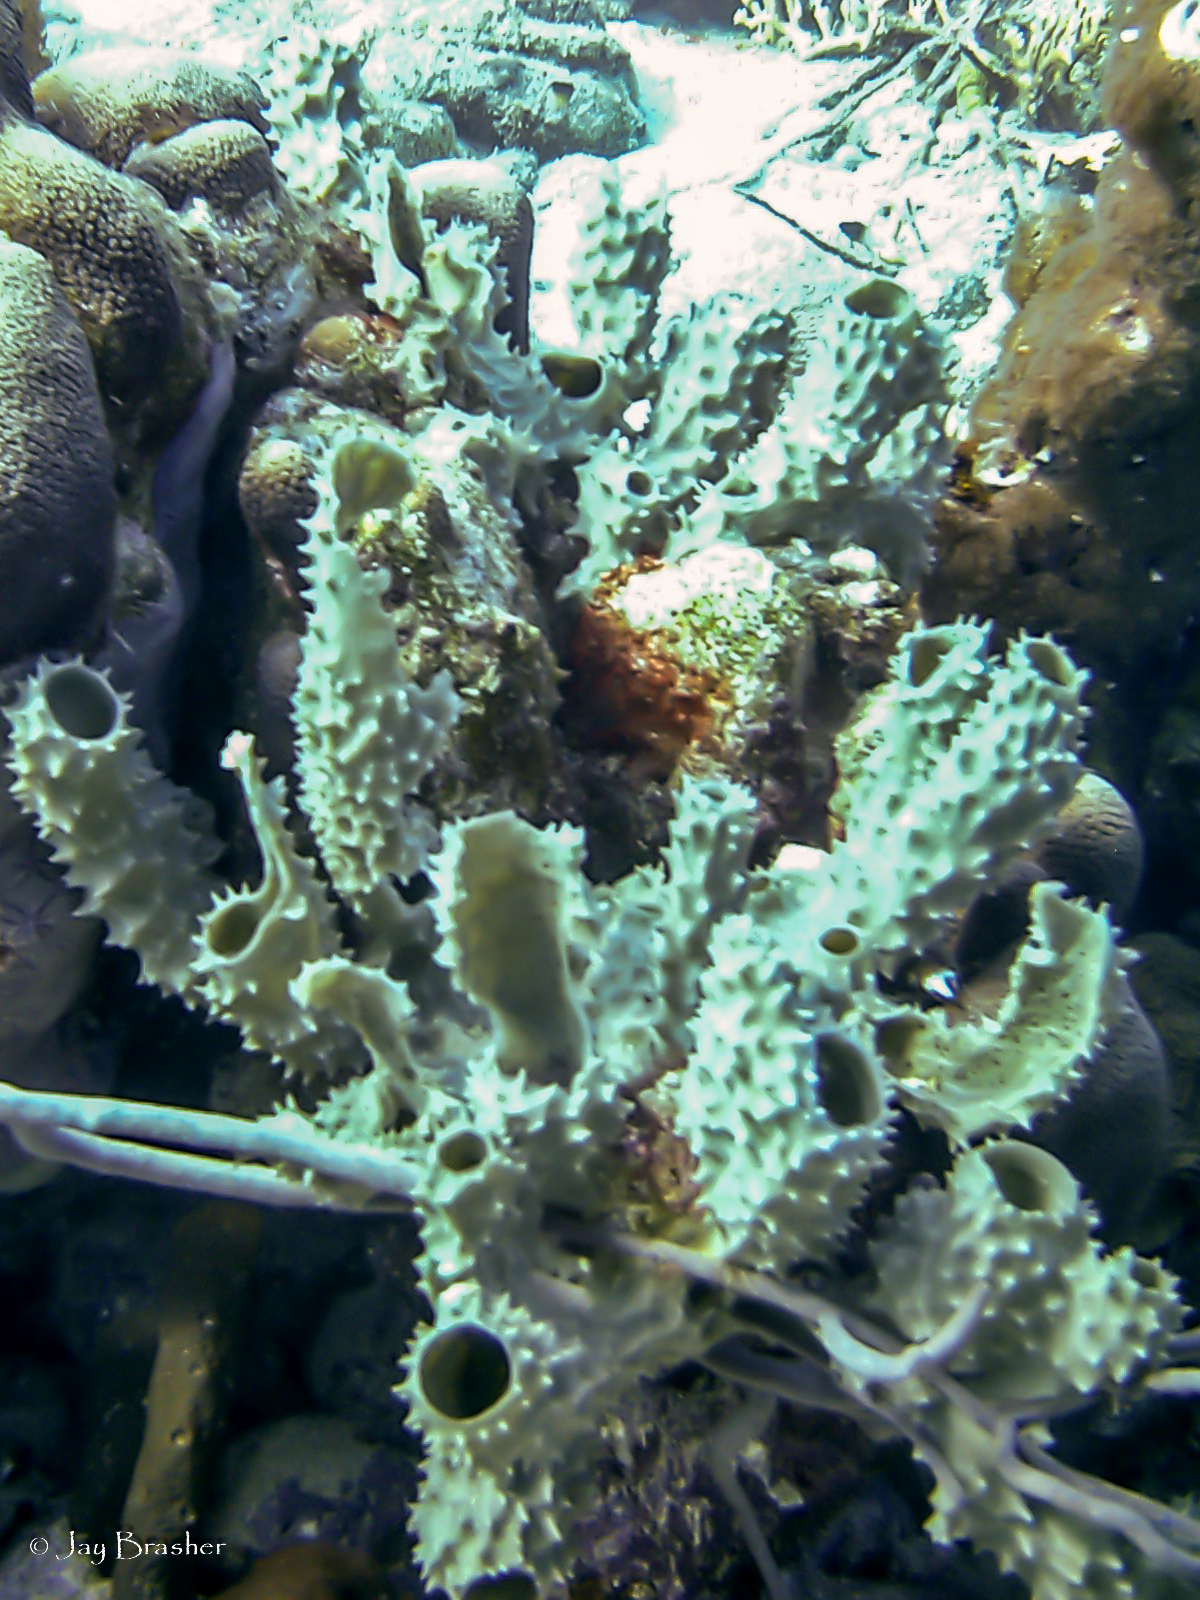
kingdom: Animalia
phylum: Porifera
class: Demospongiae
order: Haplosclerida
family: Callyspongiidae
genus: Callyspongia
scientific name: Callyspongia aculeata
